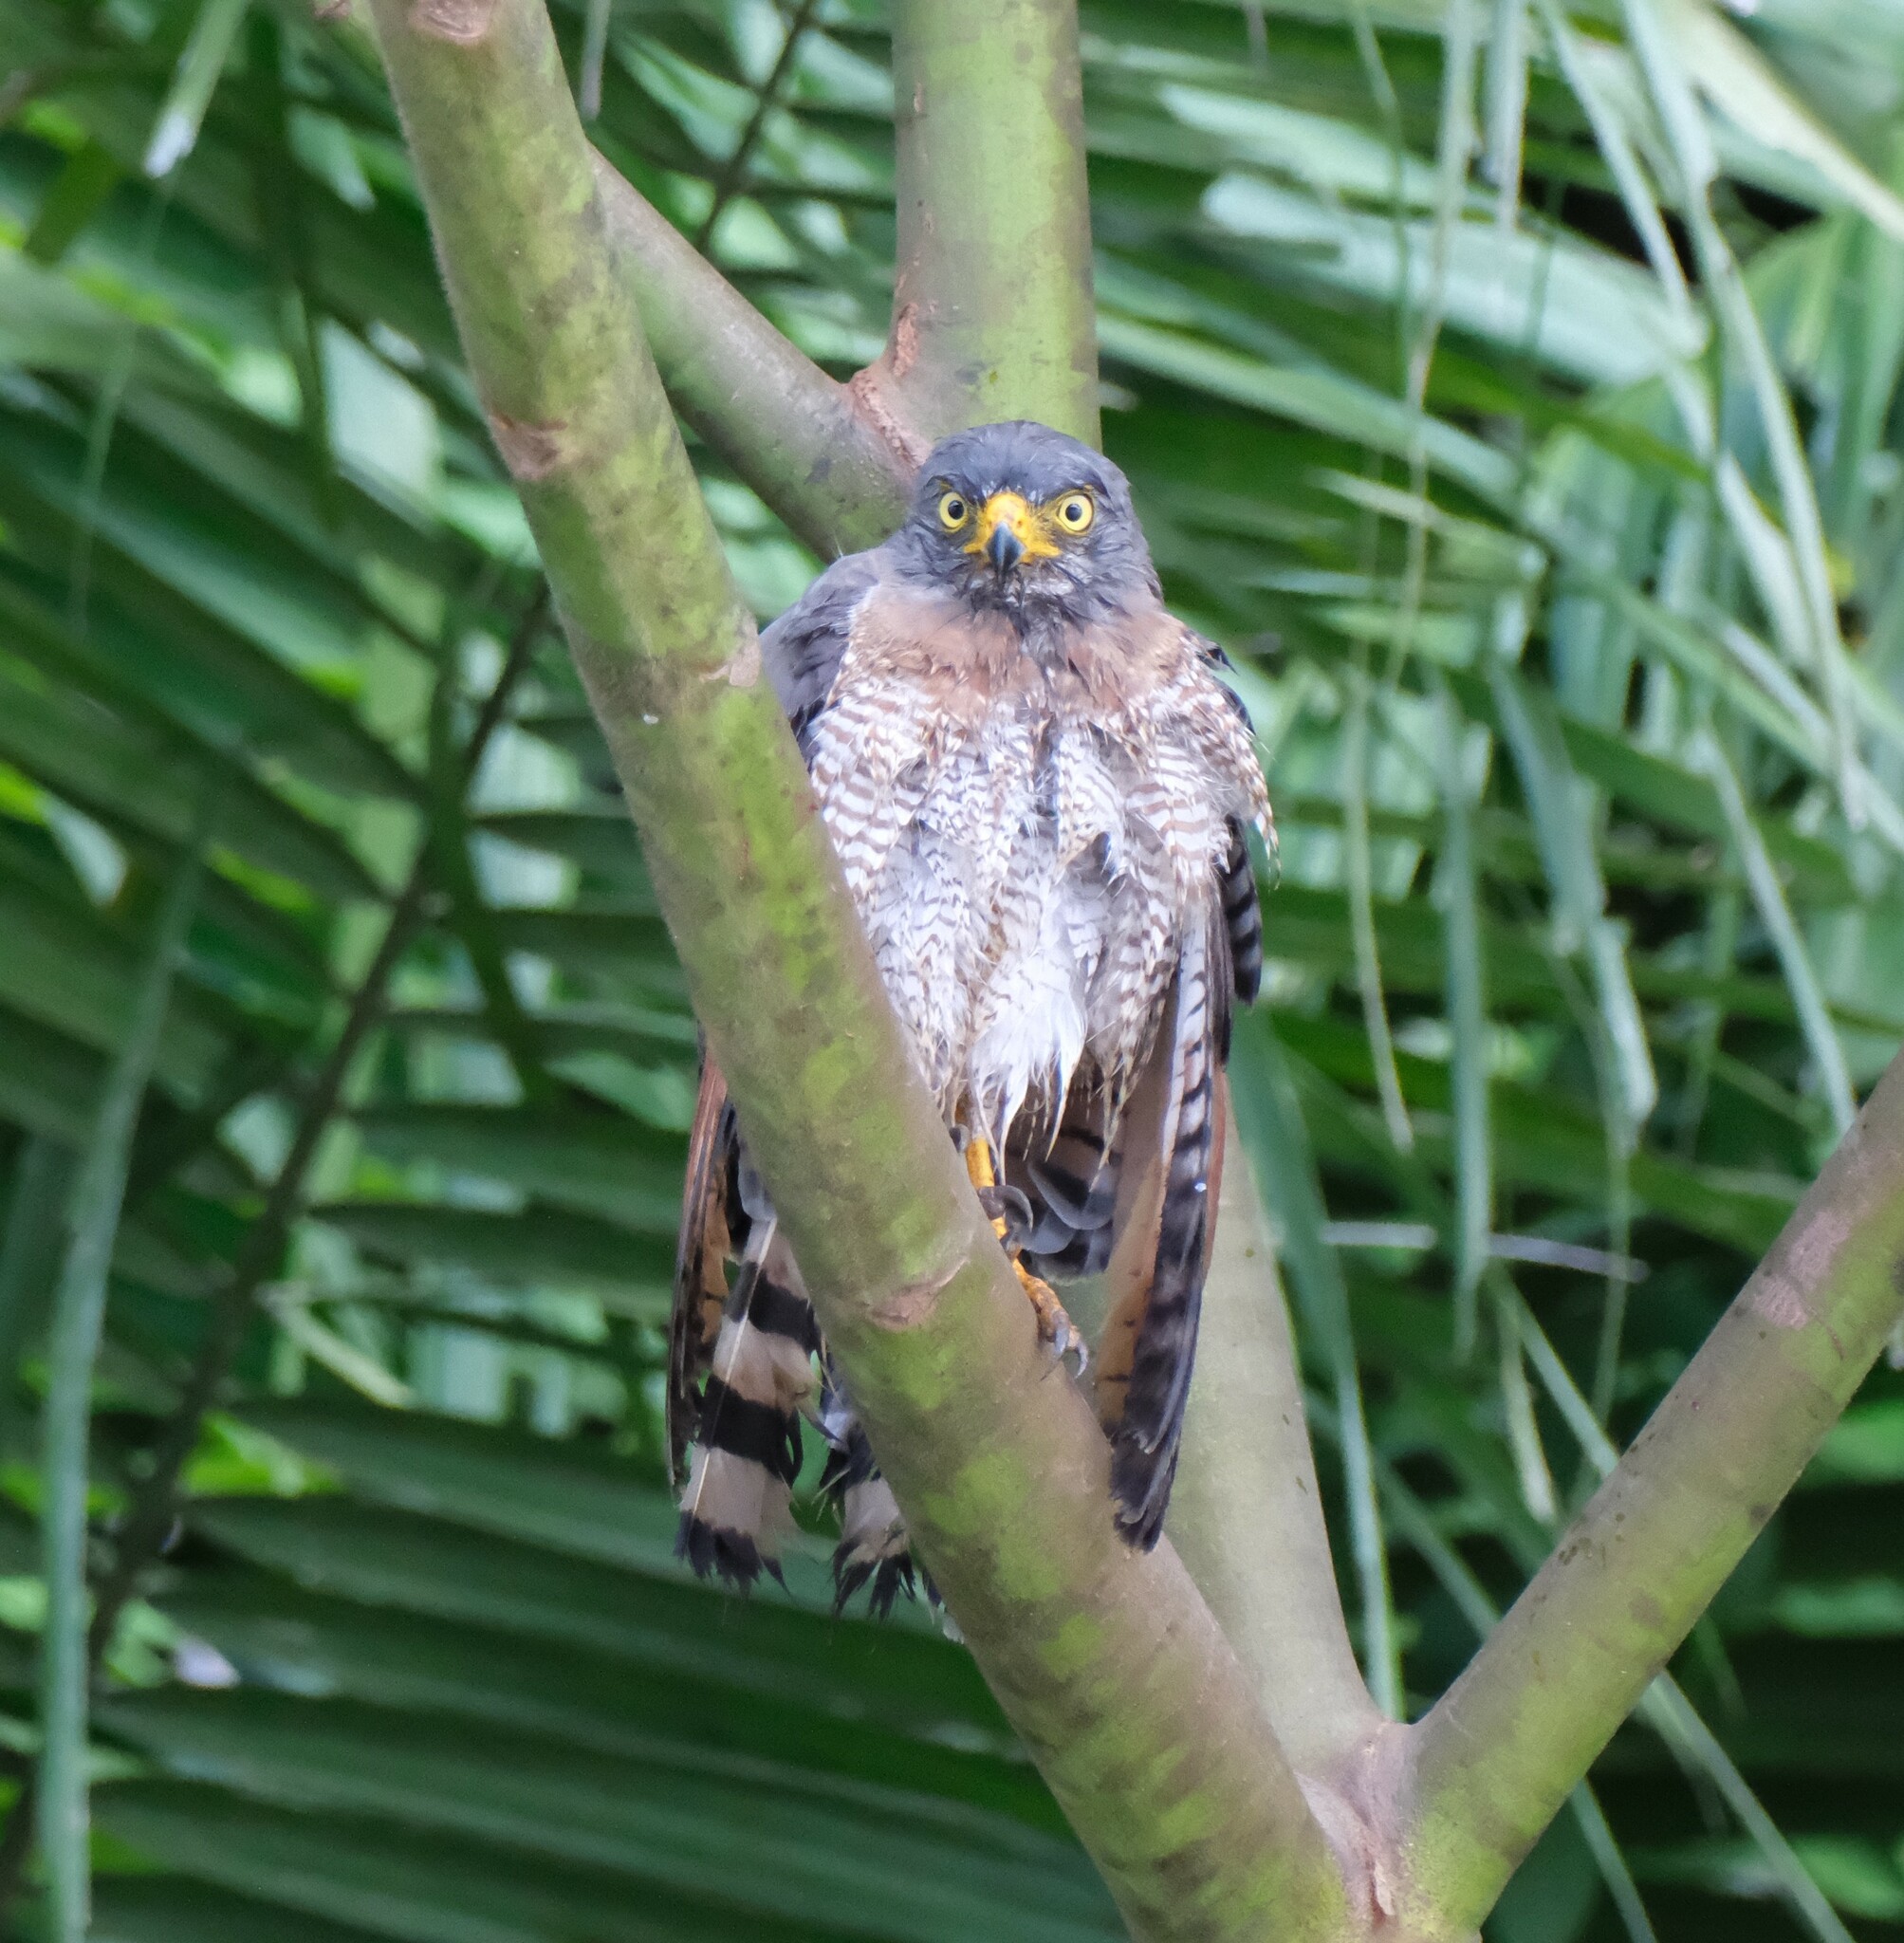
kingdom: Animalia
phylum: Chordata
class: Aves
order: Accipitriformes
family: Accipitridae
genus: Rupornis
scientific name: Rupornis magnirostris
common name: Roadside hawk
